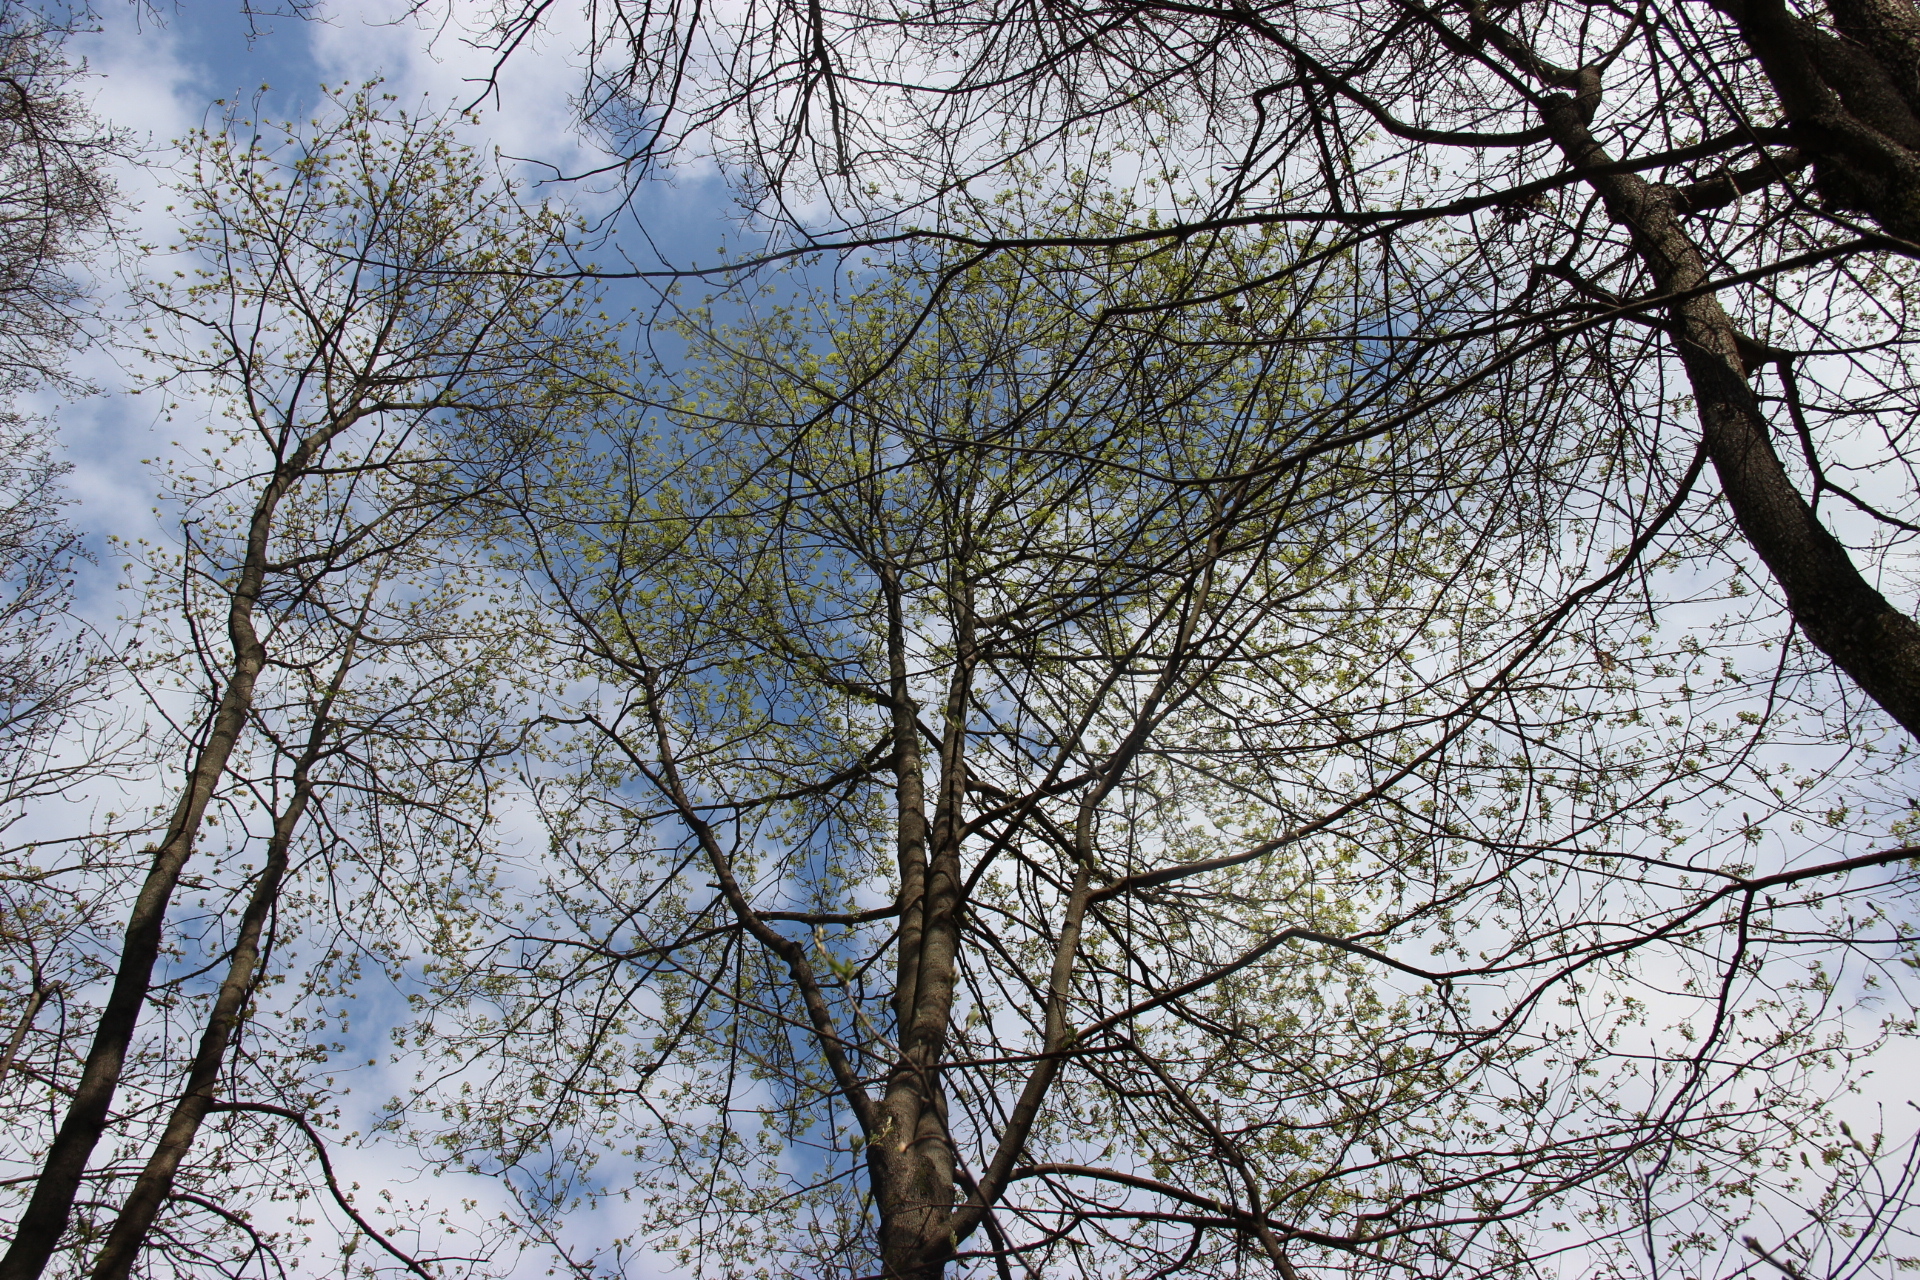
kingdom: Plantae
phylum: Tracheophyta
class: Magnoliopsida
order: Sapindales
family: Sapindaceae
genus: Acer
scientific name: Acer platanoides
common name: Norway maple
